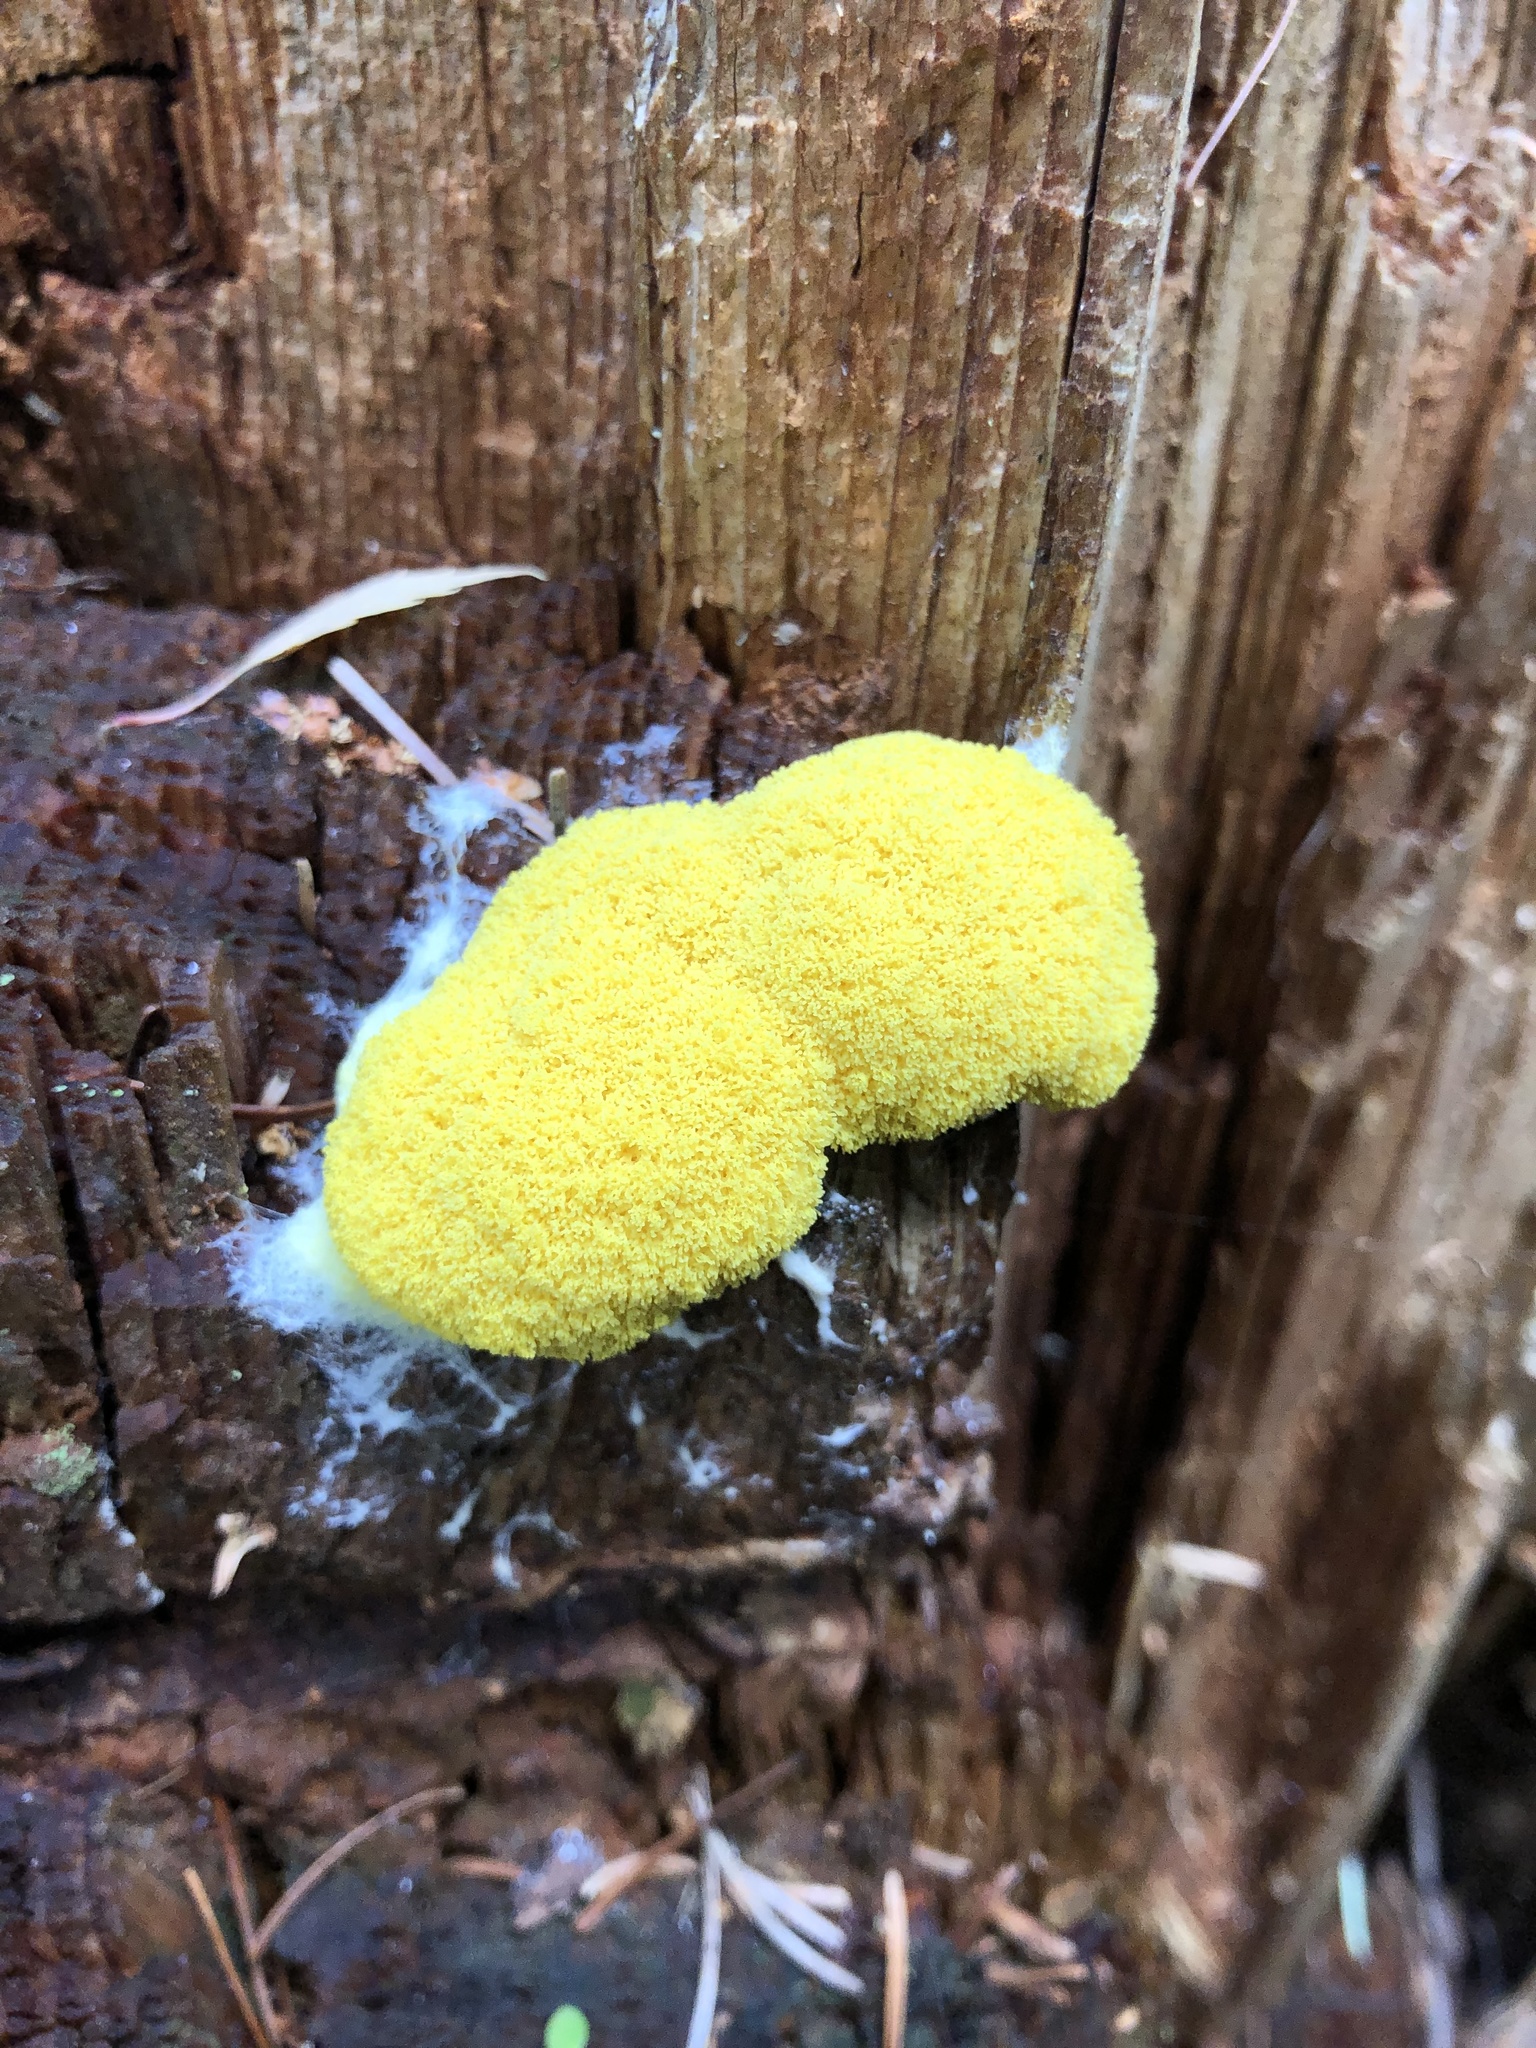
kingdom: Protozoa
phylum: Mycetozoa
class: Myxomycetes
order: Physarales
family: Physaraceae
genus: Fuligo
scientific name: Fuligo septica
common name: Dog vomit slime mold
